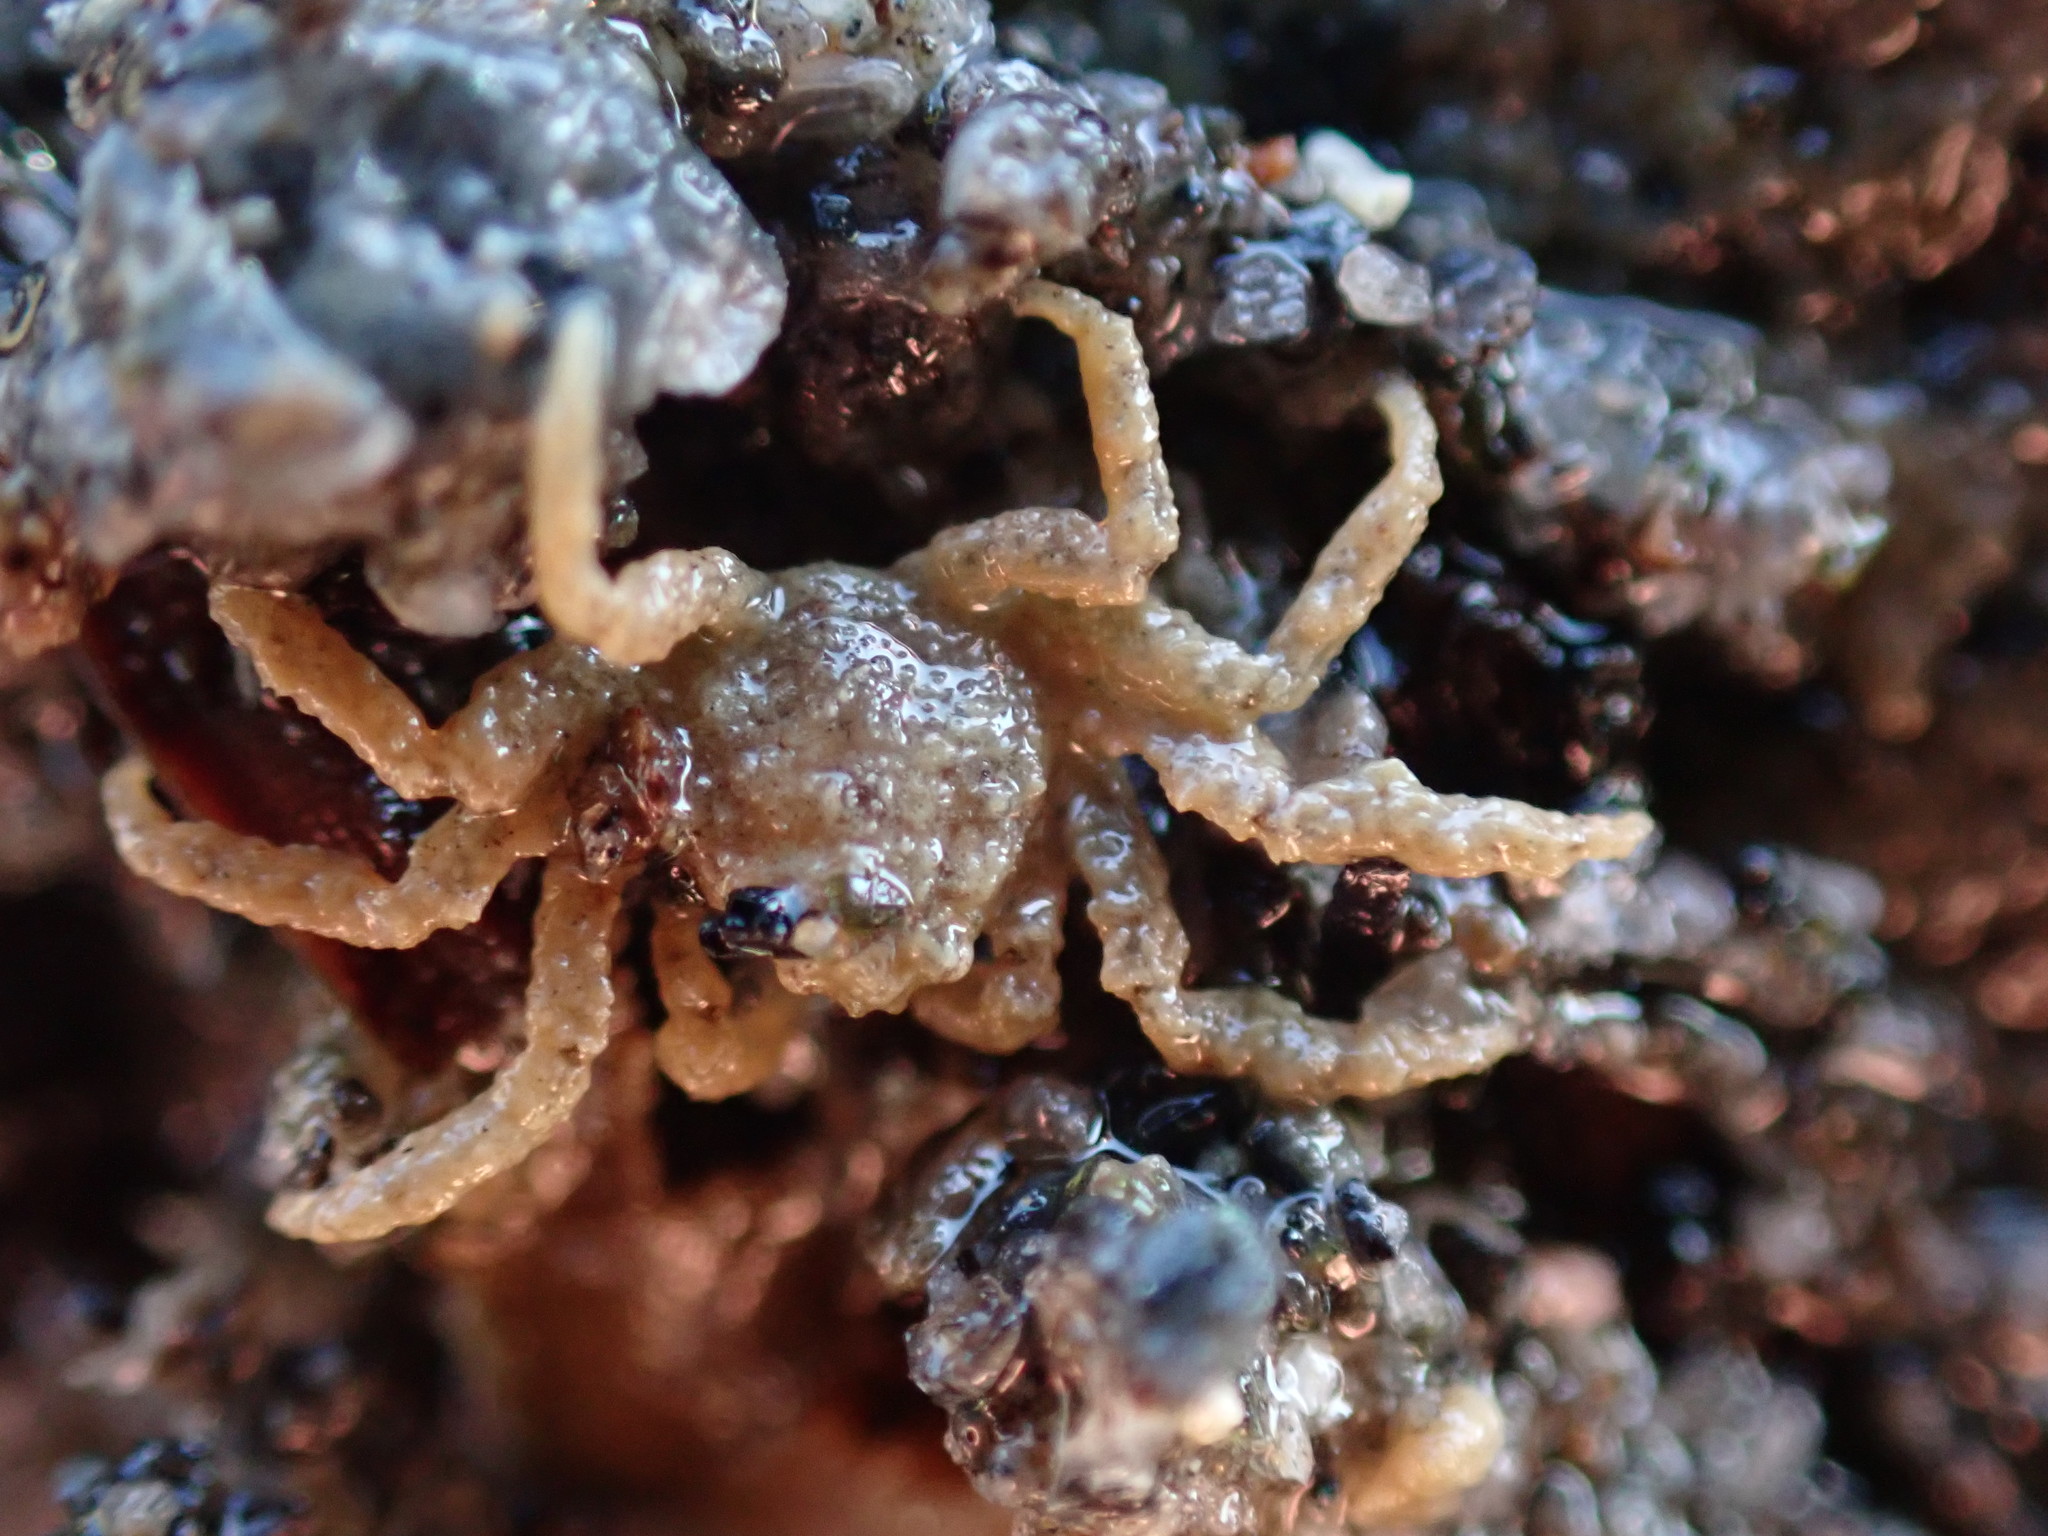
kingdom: Animalia
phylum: Arthropoda
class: Malacostraca
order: Decapoda
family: Hymenosomatidae
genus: Neohymenicus
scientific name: Neohymenicus pubescens
